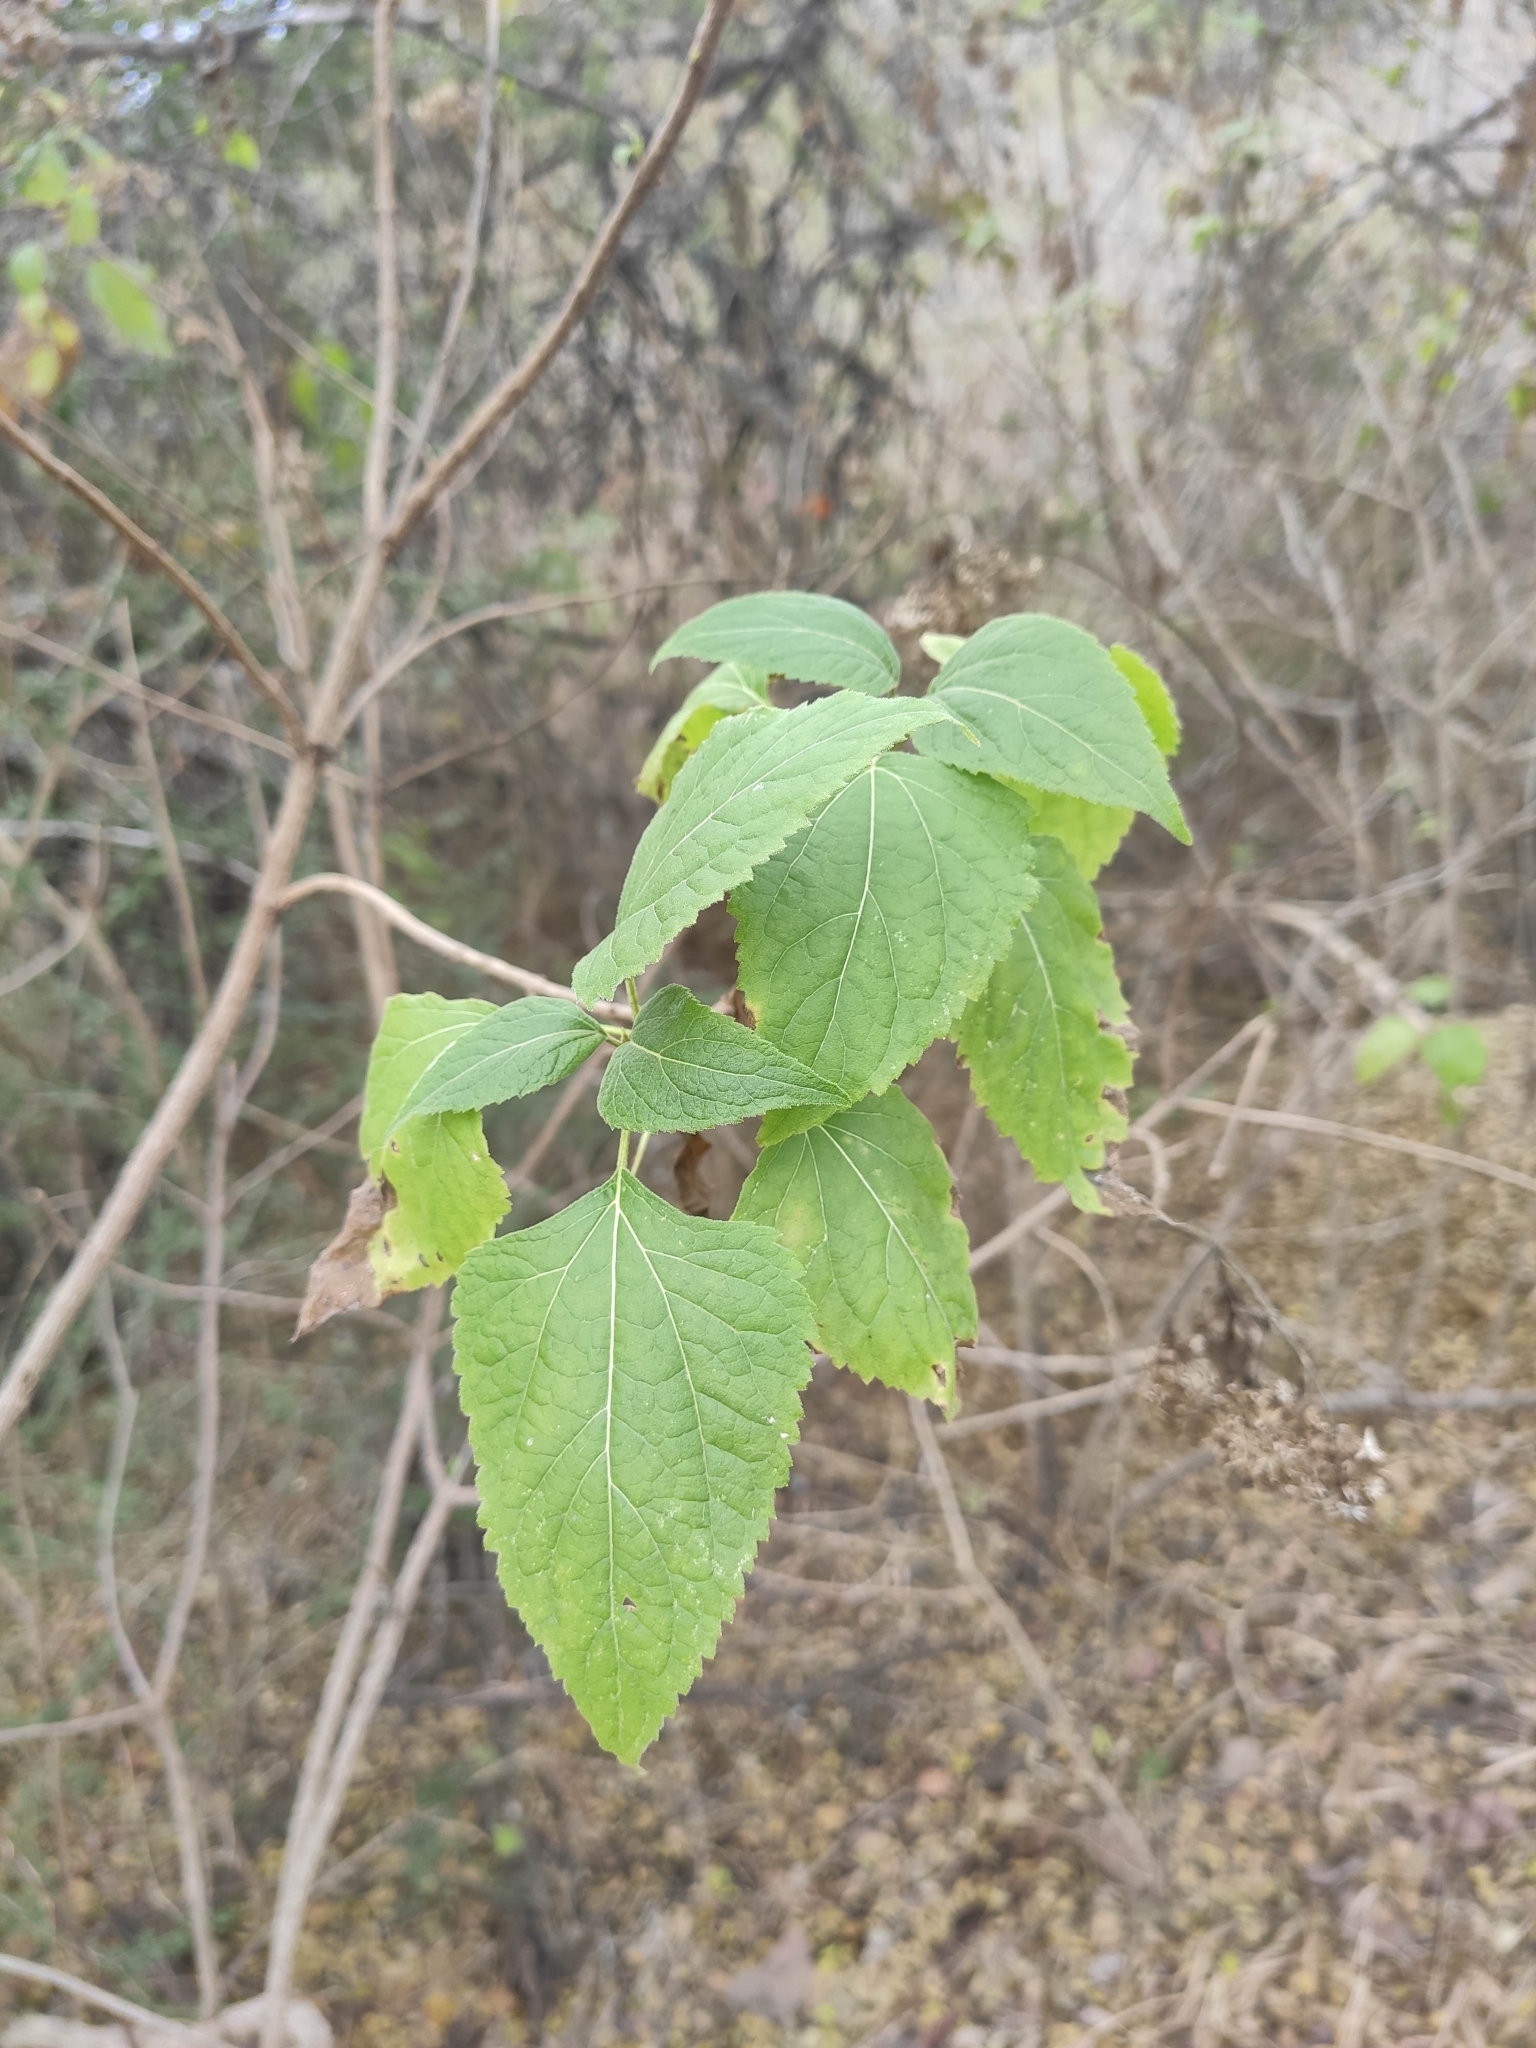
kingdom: Plantae
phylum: Tracheophyta
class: Magnoliopsida
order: Asterales
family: Asteraceae
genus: Lorentzianthus
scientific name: Lorentzianthus viscidus
